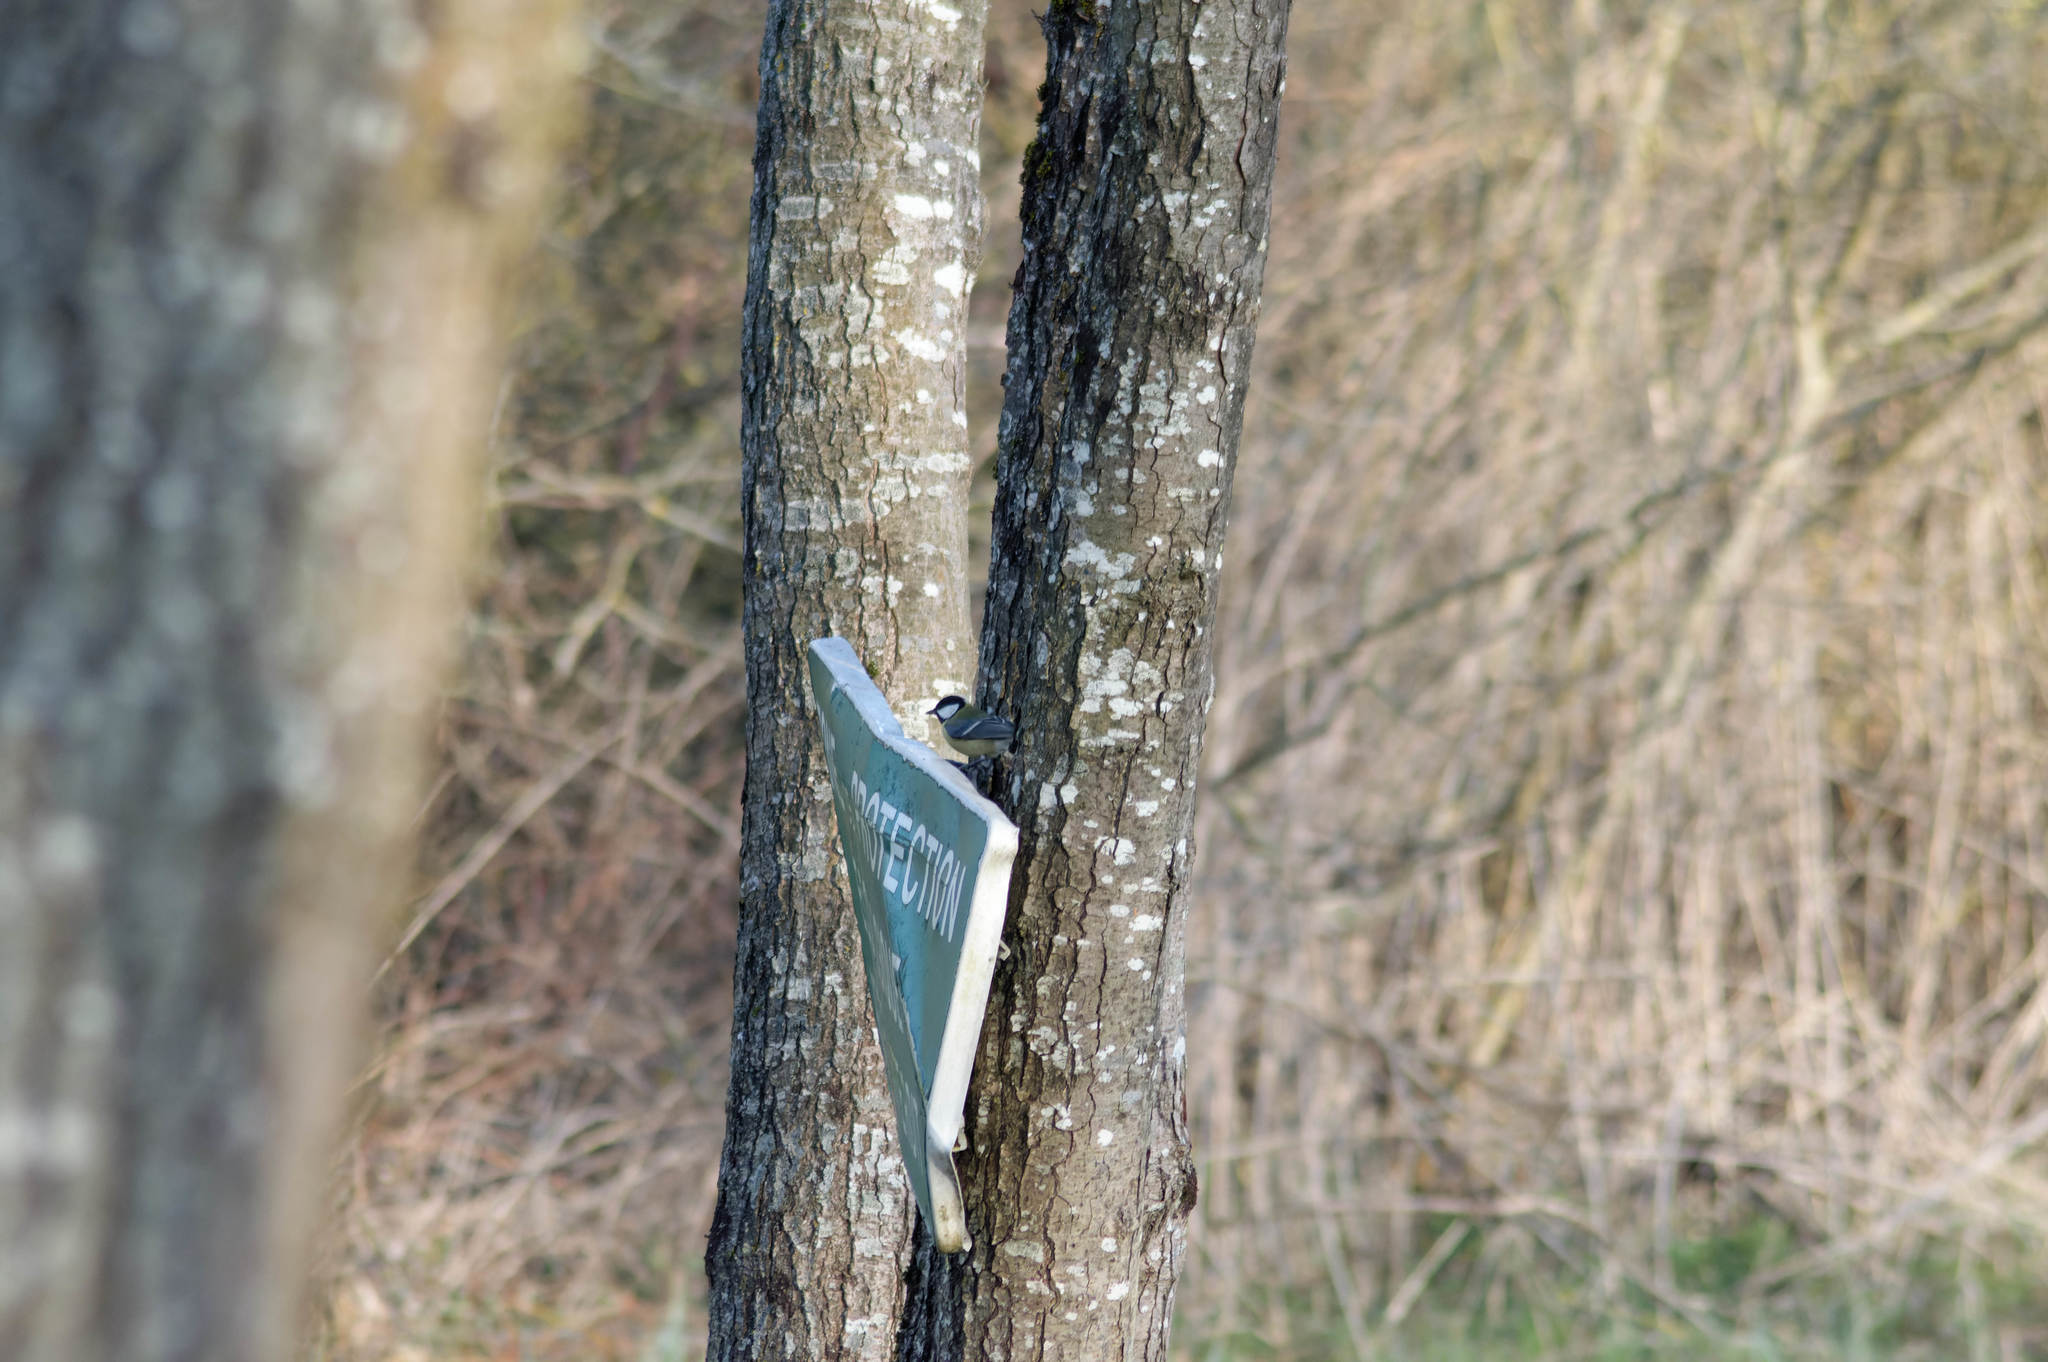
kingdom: Animalia
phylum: Chordata
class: Aves
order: Passeriformes
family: Paridae
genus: Parus
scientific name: Parus major
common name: Great tit
